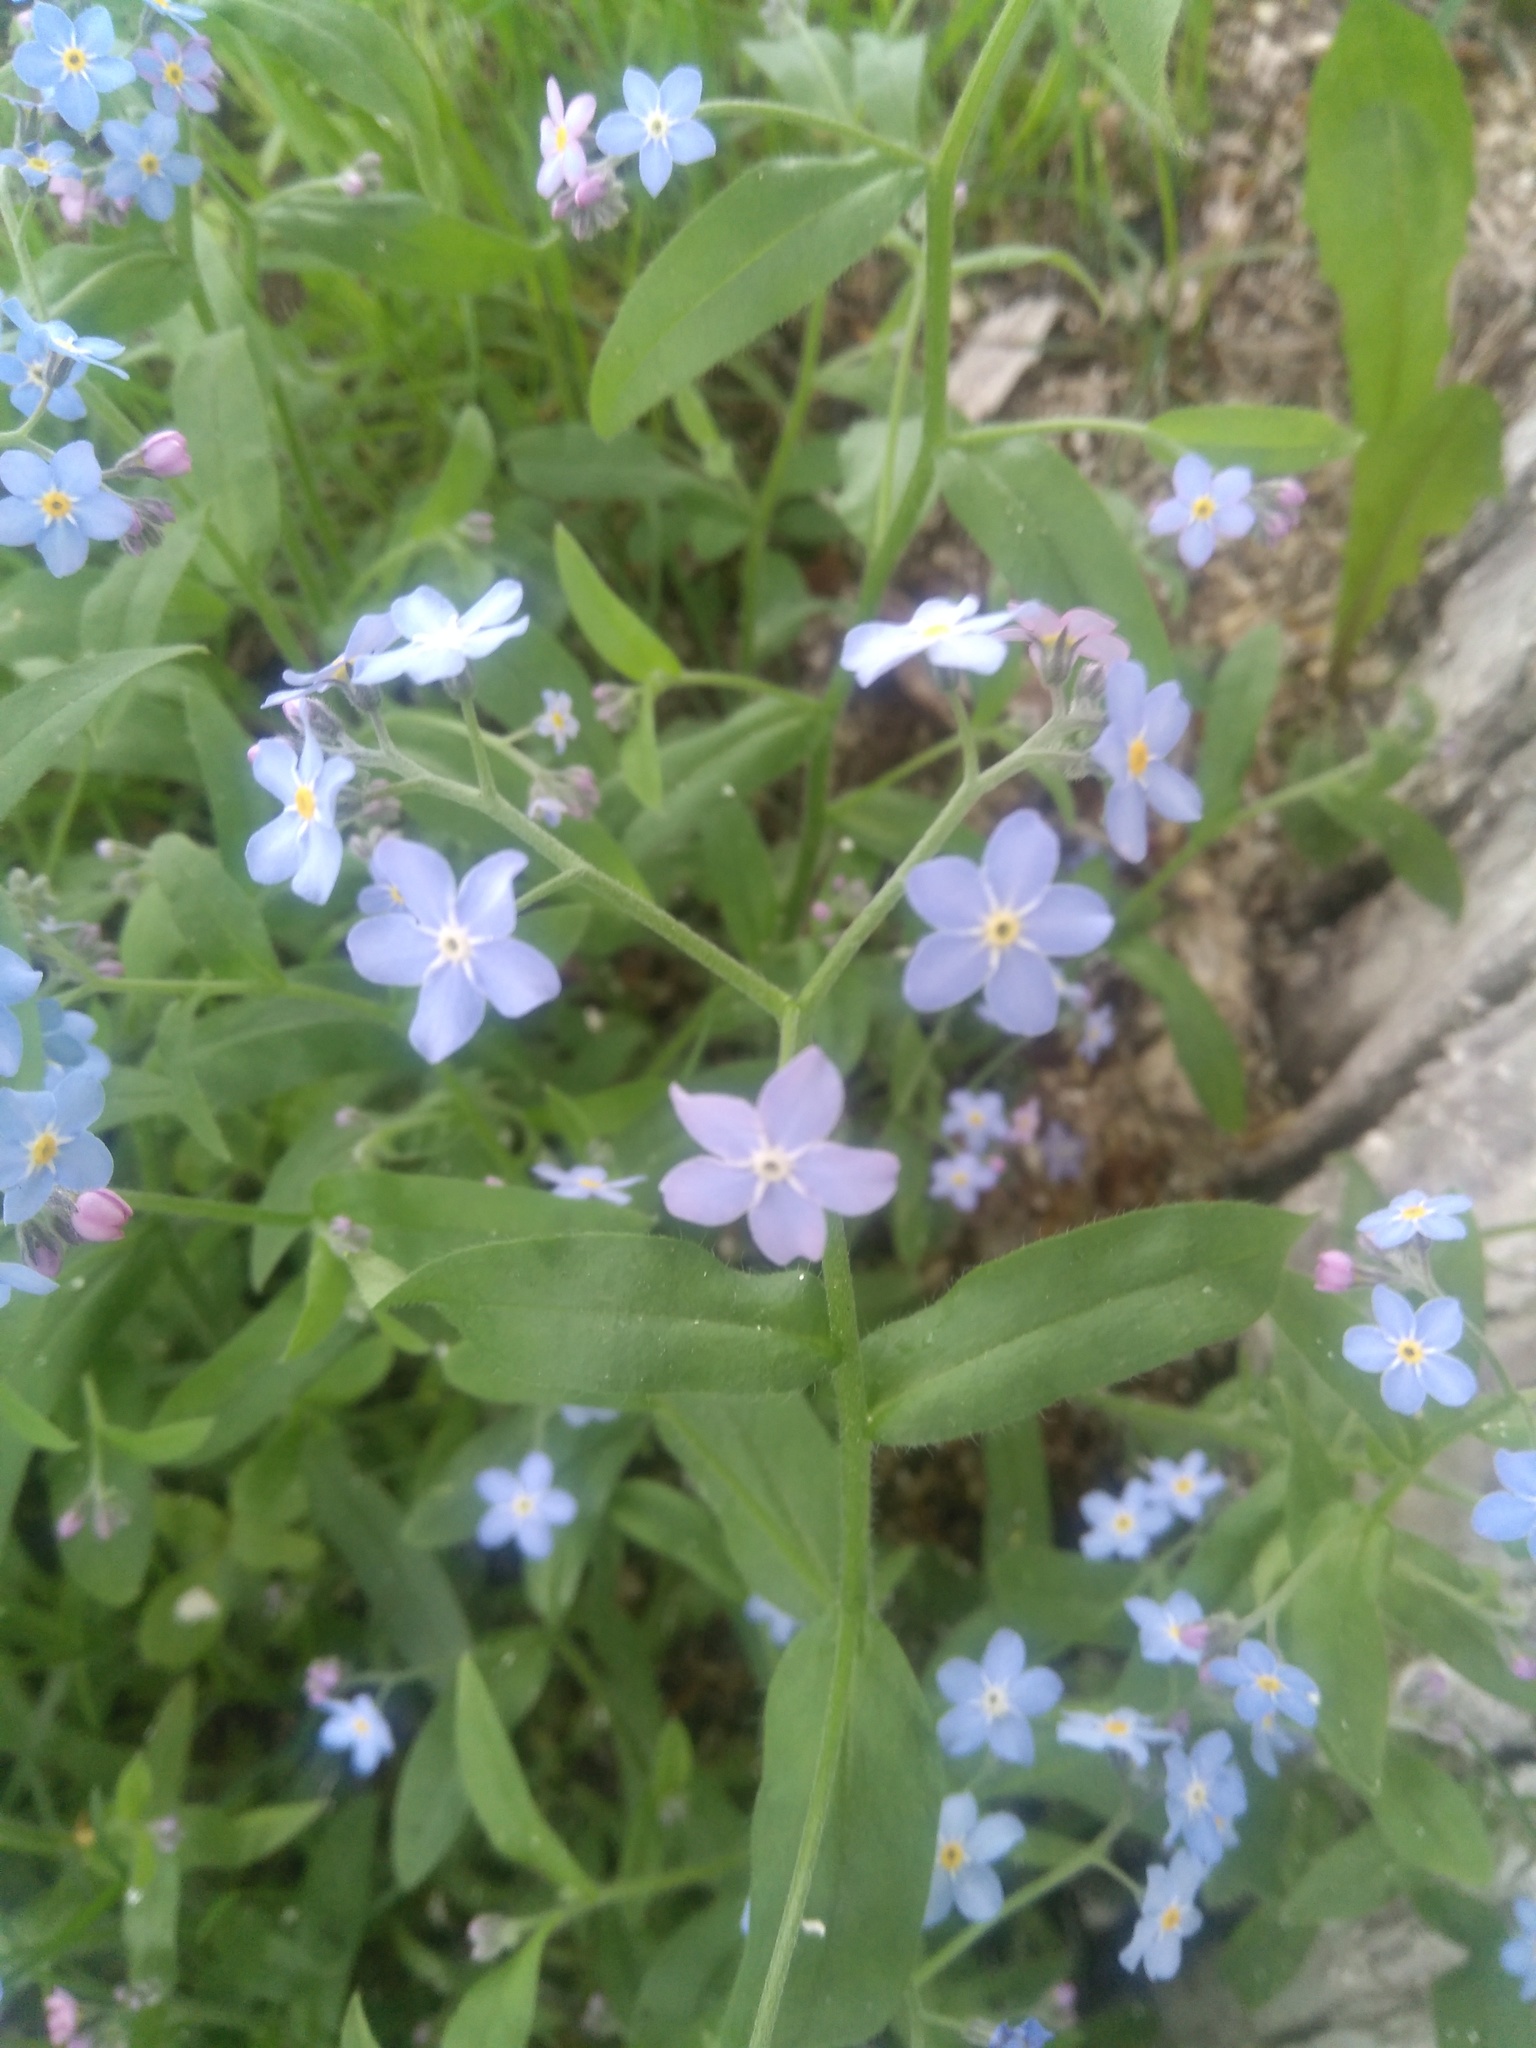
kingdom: Plantae
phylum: Tracheophyta
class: Magnoliopsida
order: Boraginales
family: Boraginaceae
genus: Myosotis
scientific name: Myosotis sylvatica
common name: Wood forget-me-not
